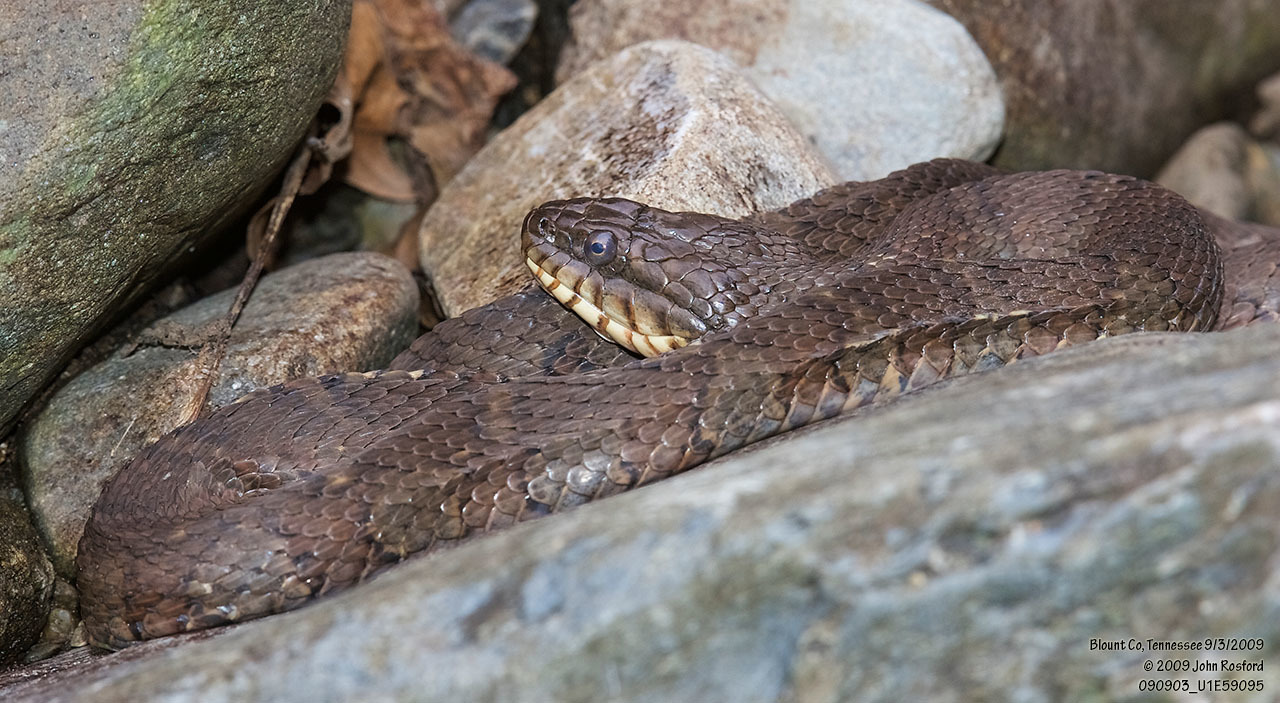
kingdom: Animalia
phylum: Chordata
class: Squamata
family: Colubridae
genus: Nerodia
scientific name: Nerodia sipedon
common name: Northern water snake
